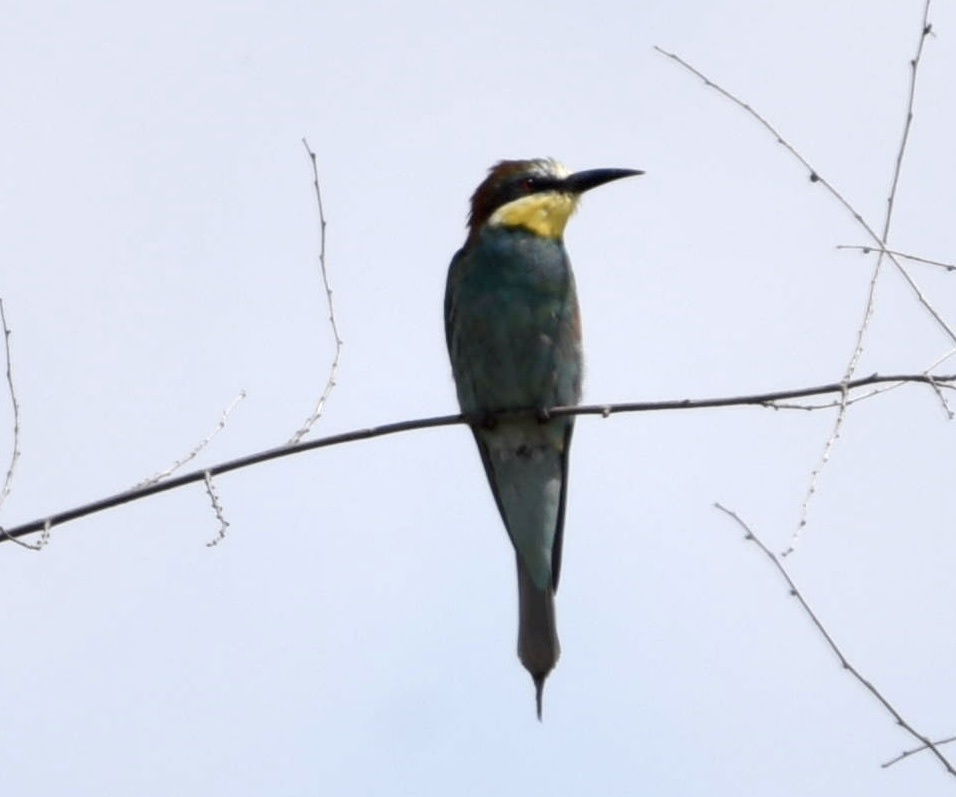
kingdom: Animalia
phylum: Chordata
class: Aves
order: Coraciiformes
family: Meropidae
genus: Merops
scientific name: Merops apiaster
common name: European bee-eater
